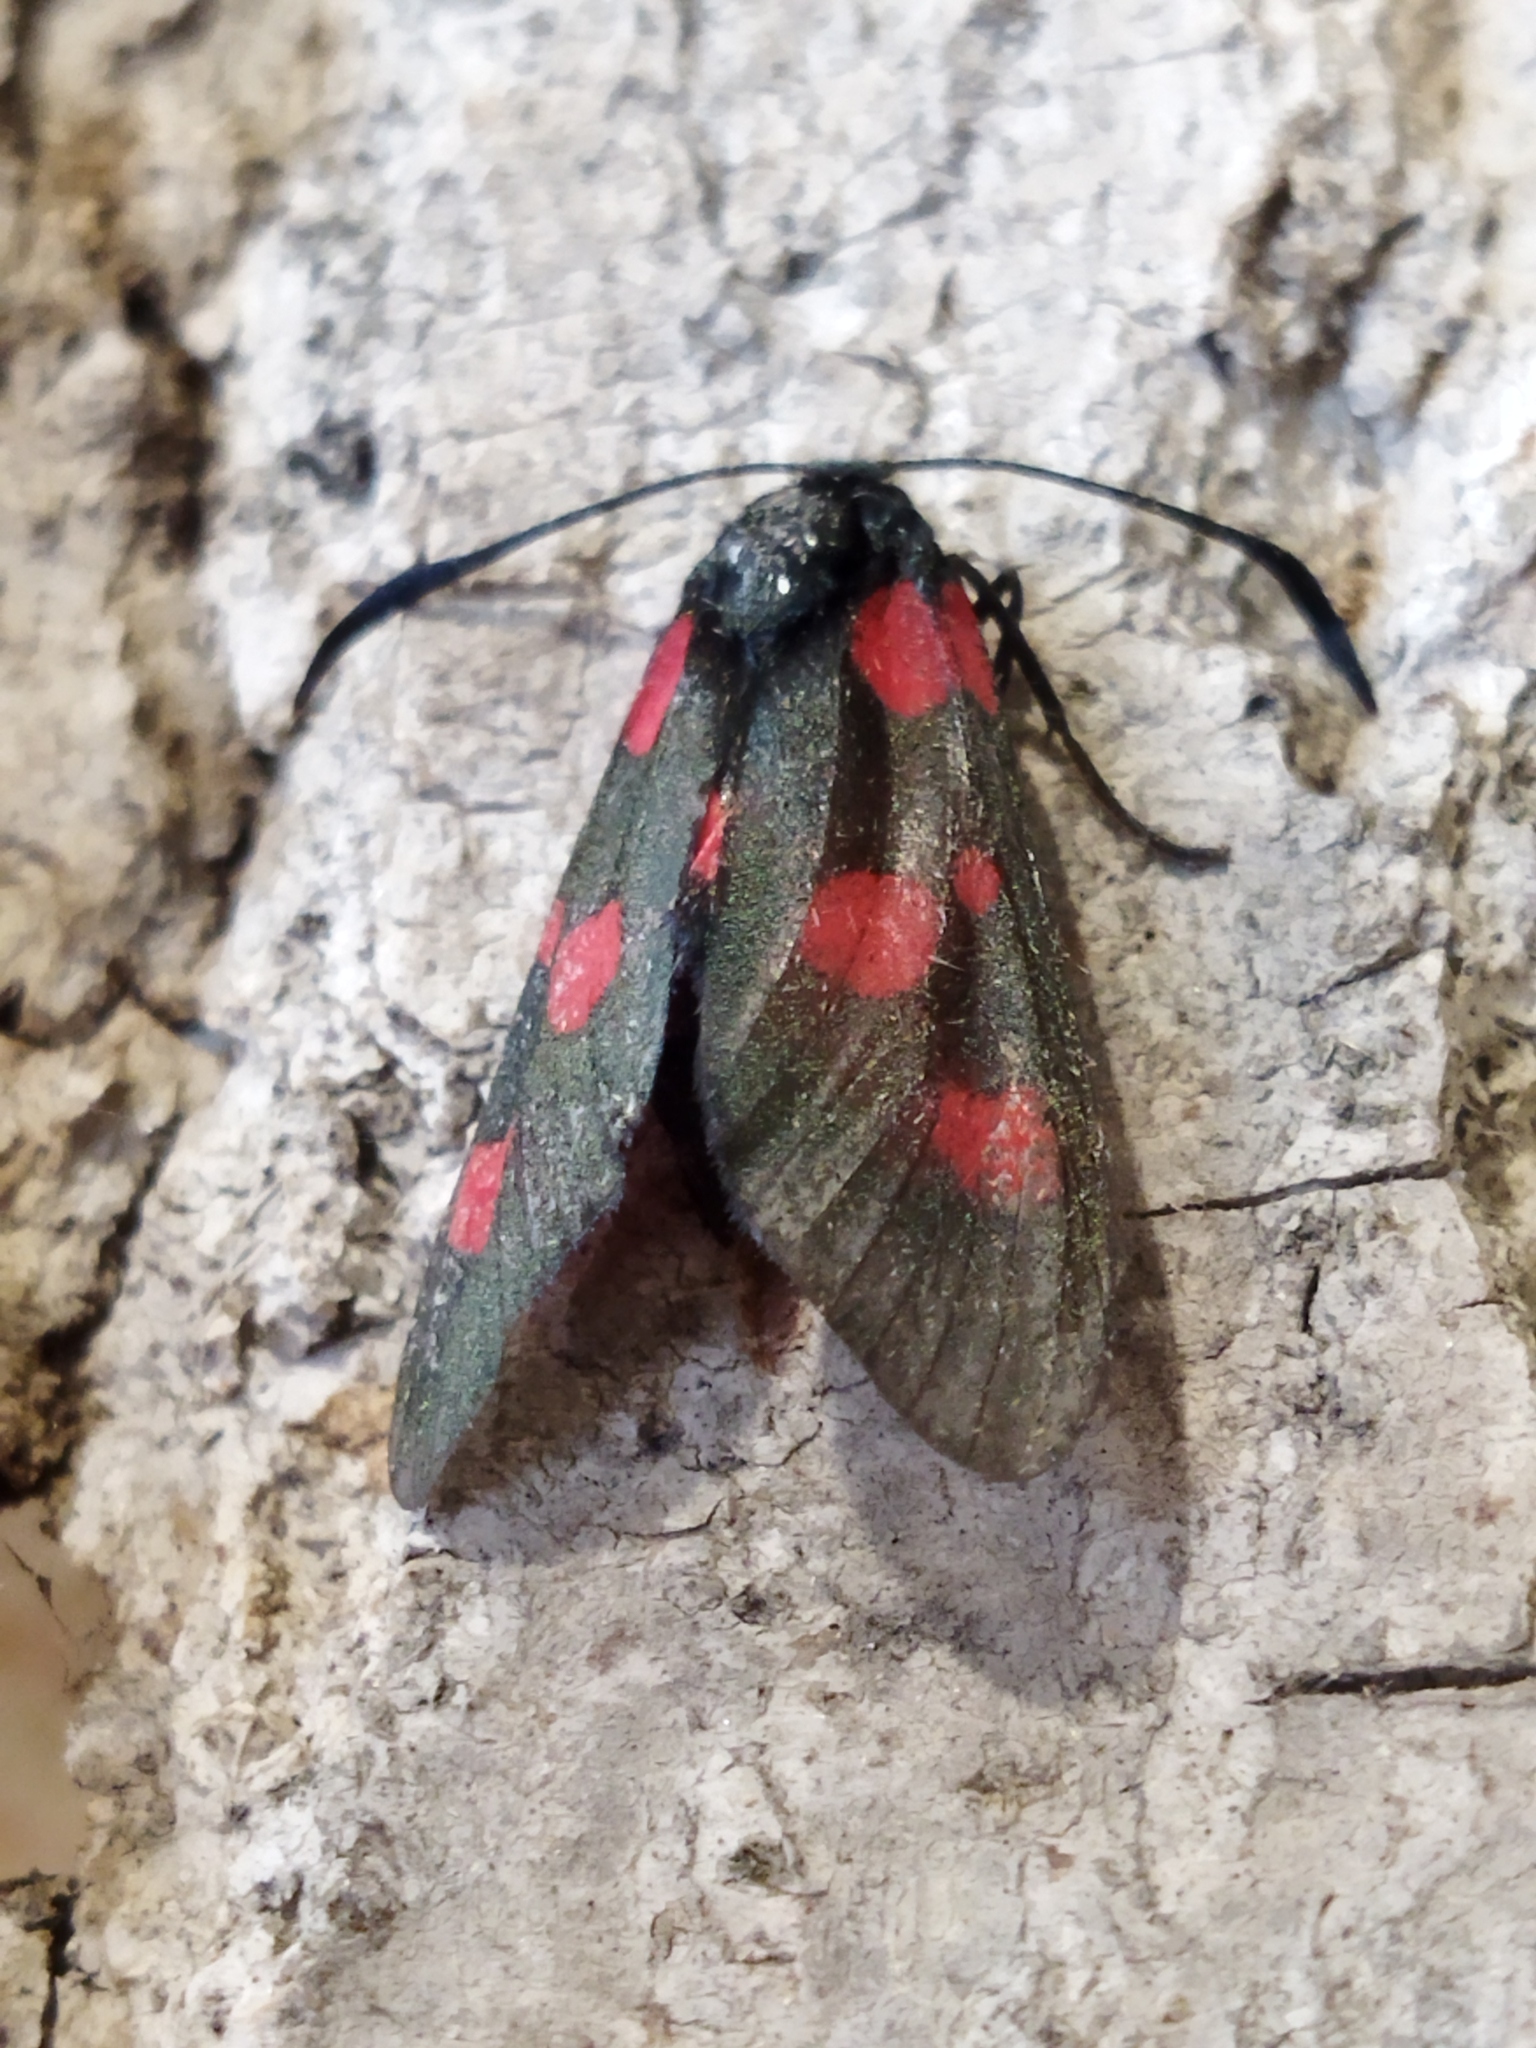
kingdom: Animalia
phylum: Arthropoda
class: Insecta
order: Lepidoptera
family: Zygaenidae
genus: Zygaena
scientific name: Zygaena viciae
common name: New forest burnet
